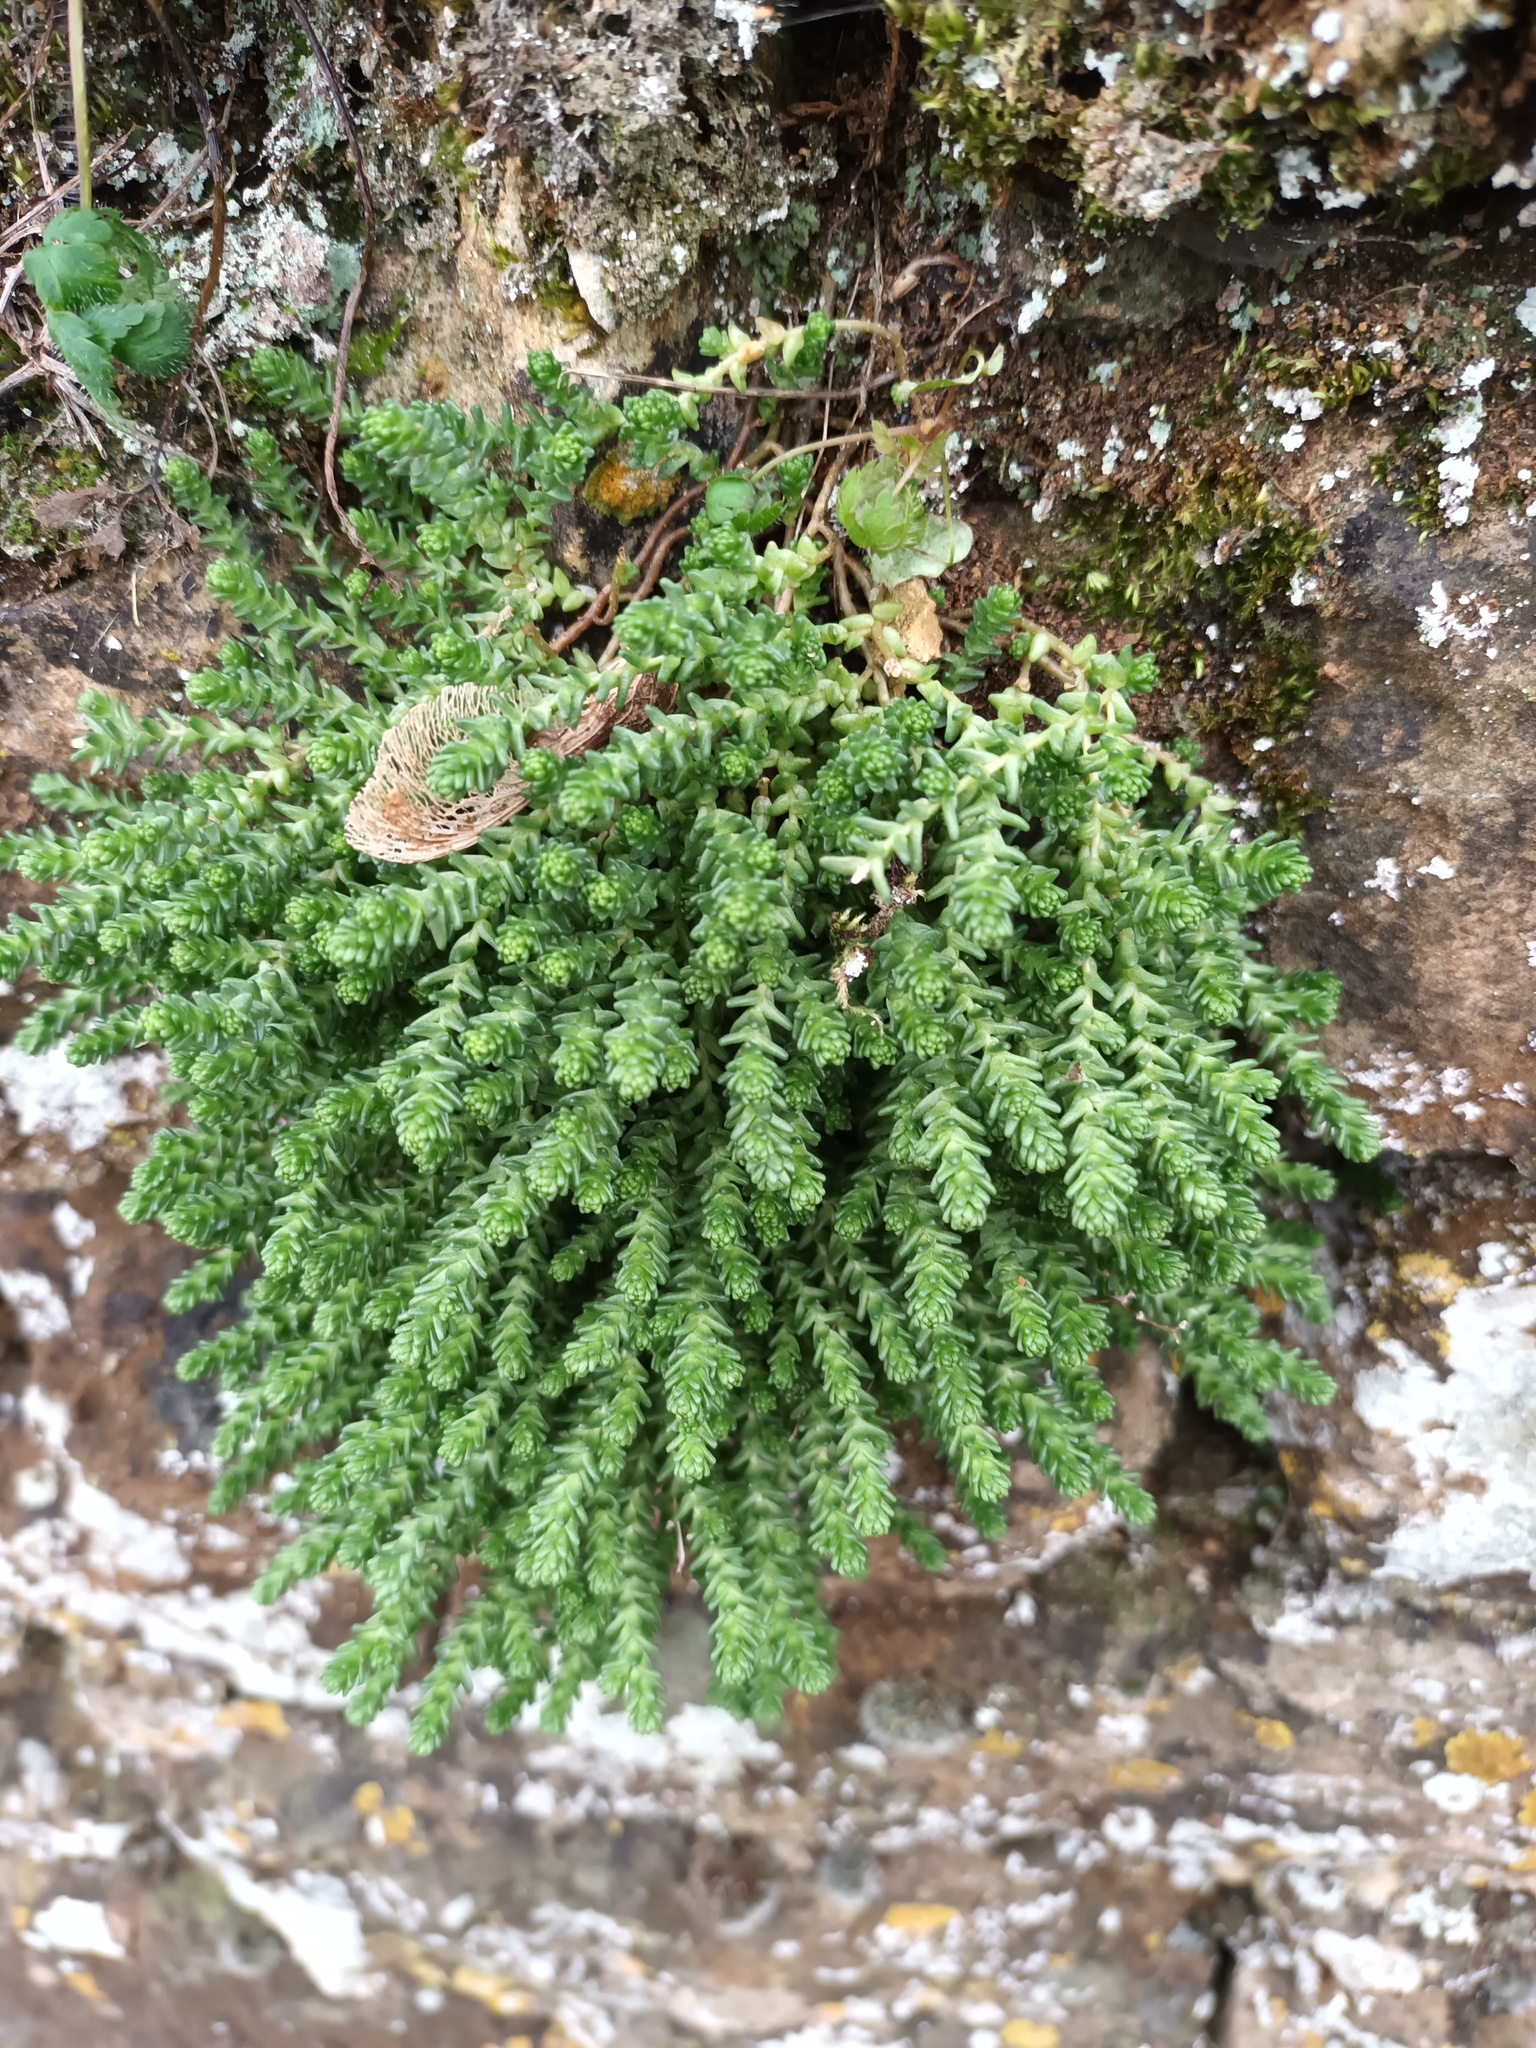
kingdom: Plantae
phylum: Tracheophyta
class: Magnoliopsida
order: Saxifragales
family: Crassulaceae
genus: Sedum
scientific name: Sedum acre
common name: Biting stonecrop
